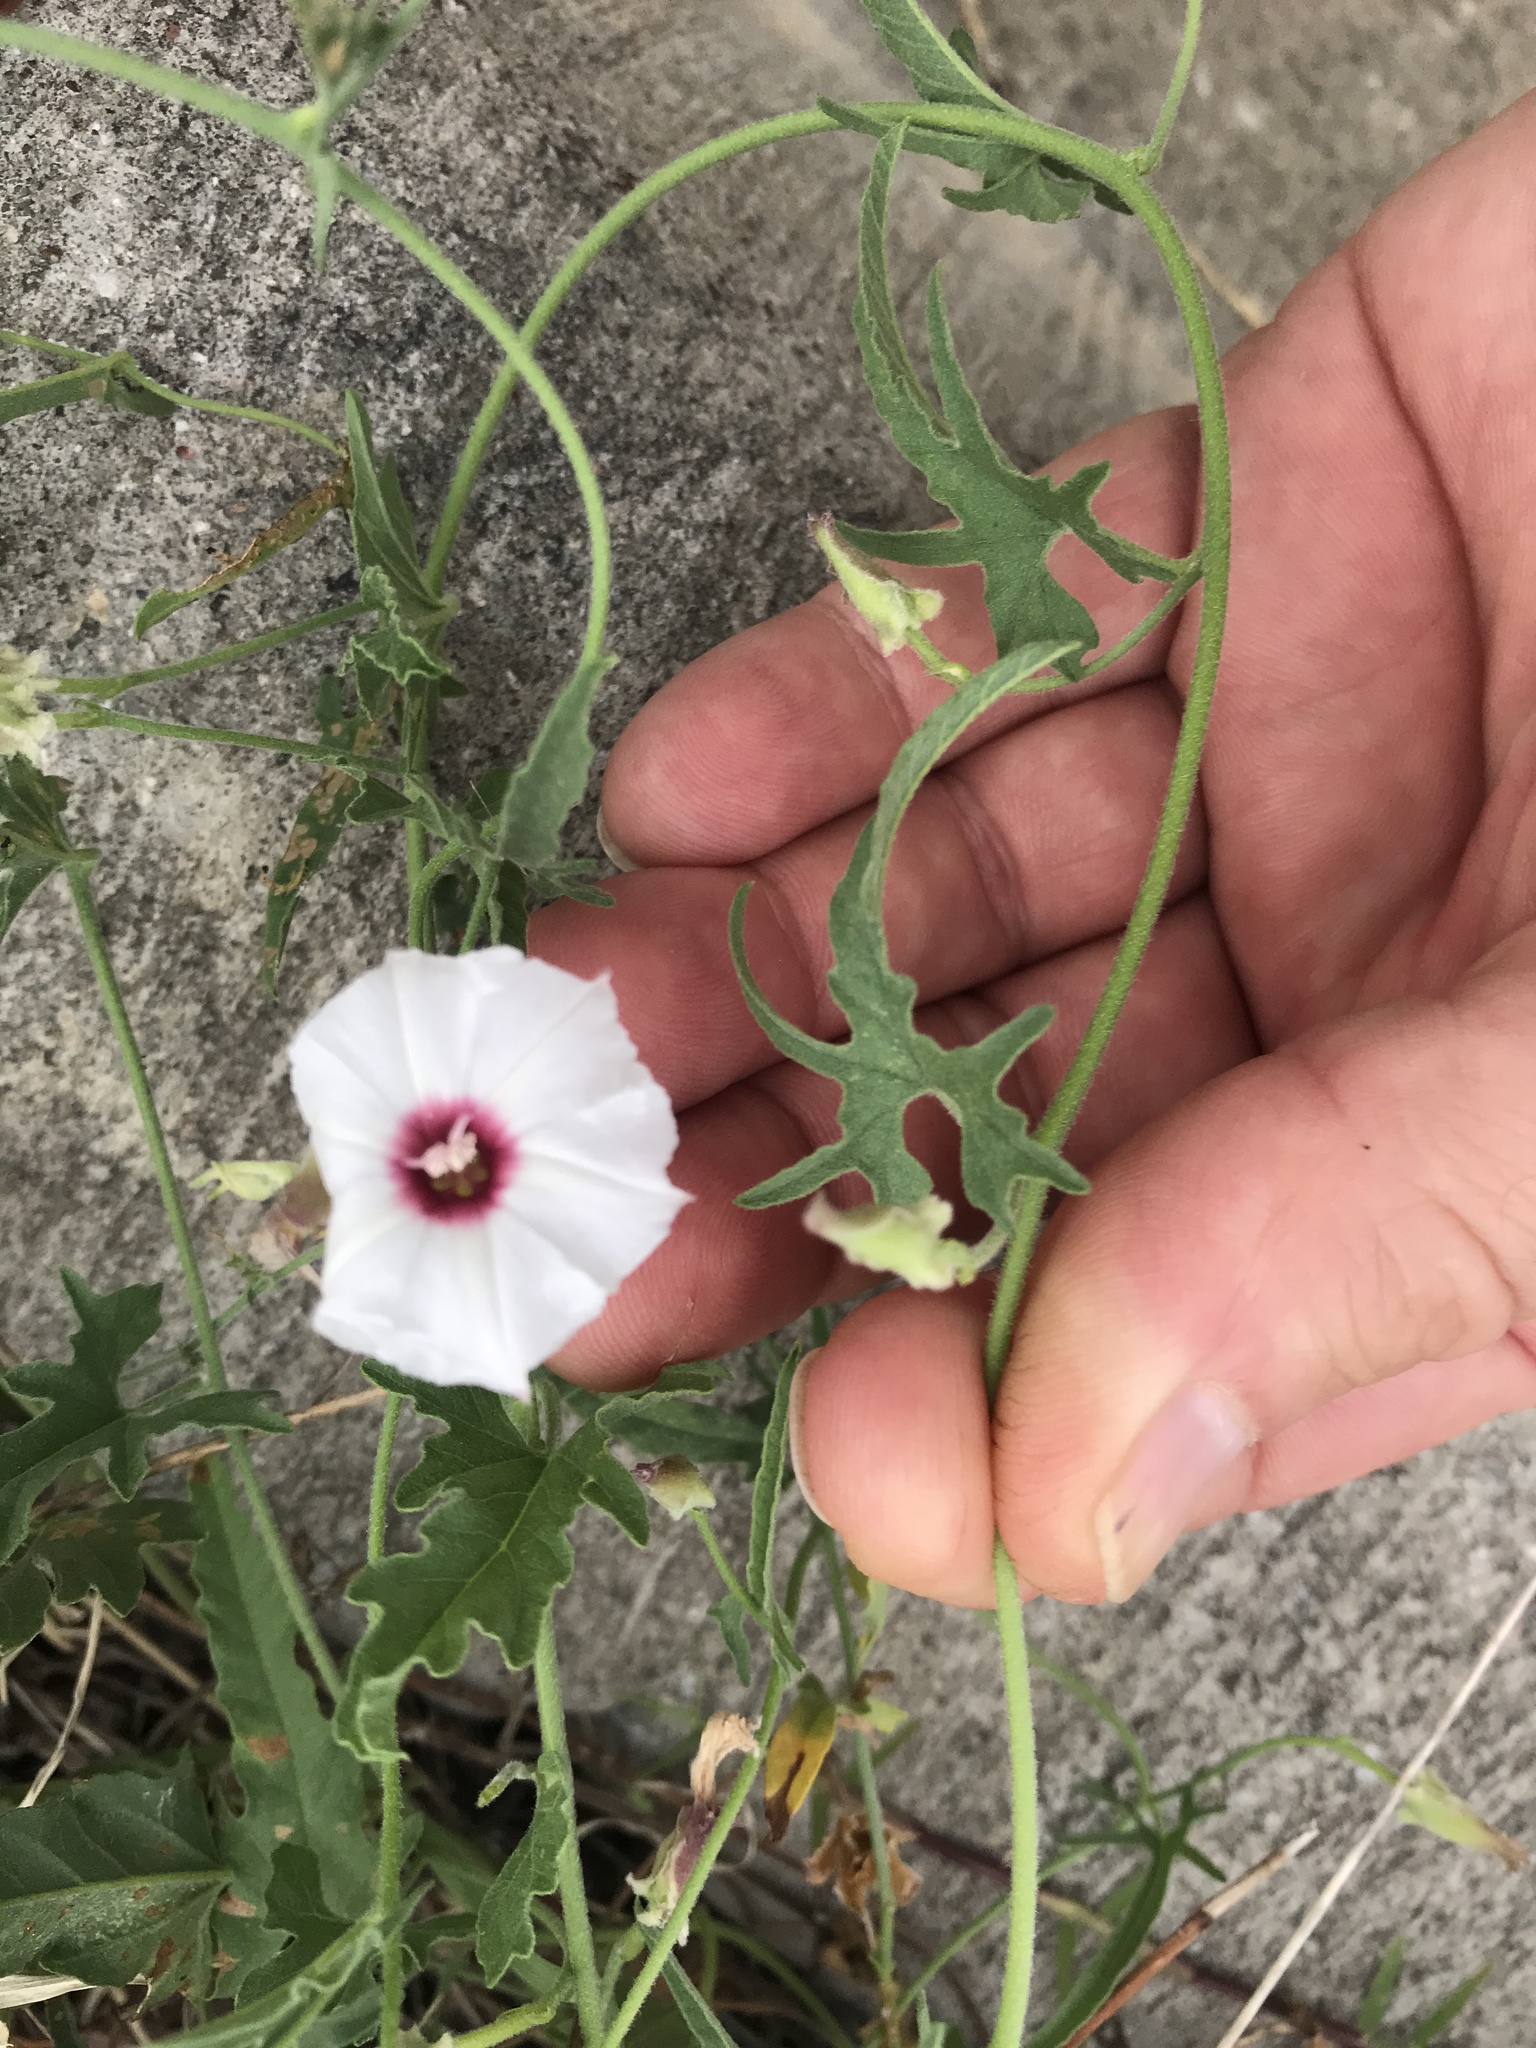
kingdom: Plantae
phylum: Tracheophyta
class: Magnoliopsida
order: Solanales
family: Convolvulaceae
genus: Convolvulus
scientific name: Convolvulus equitans
